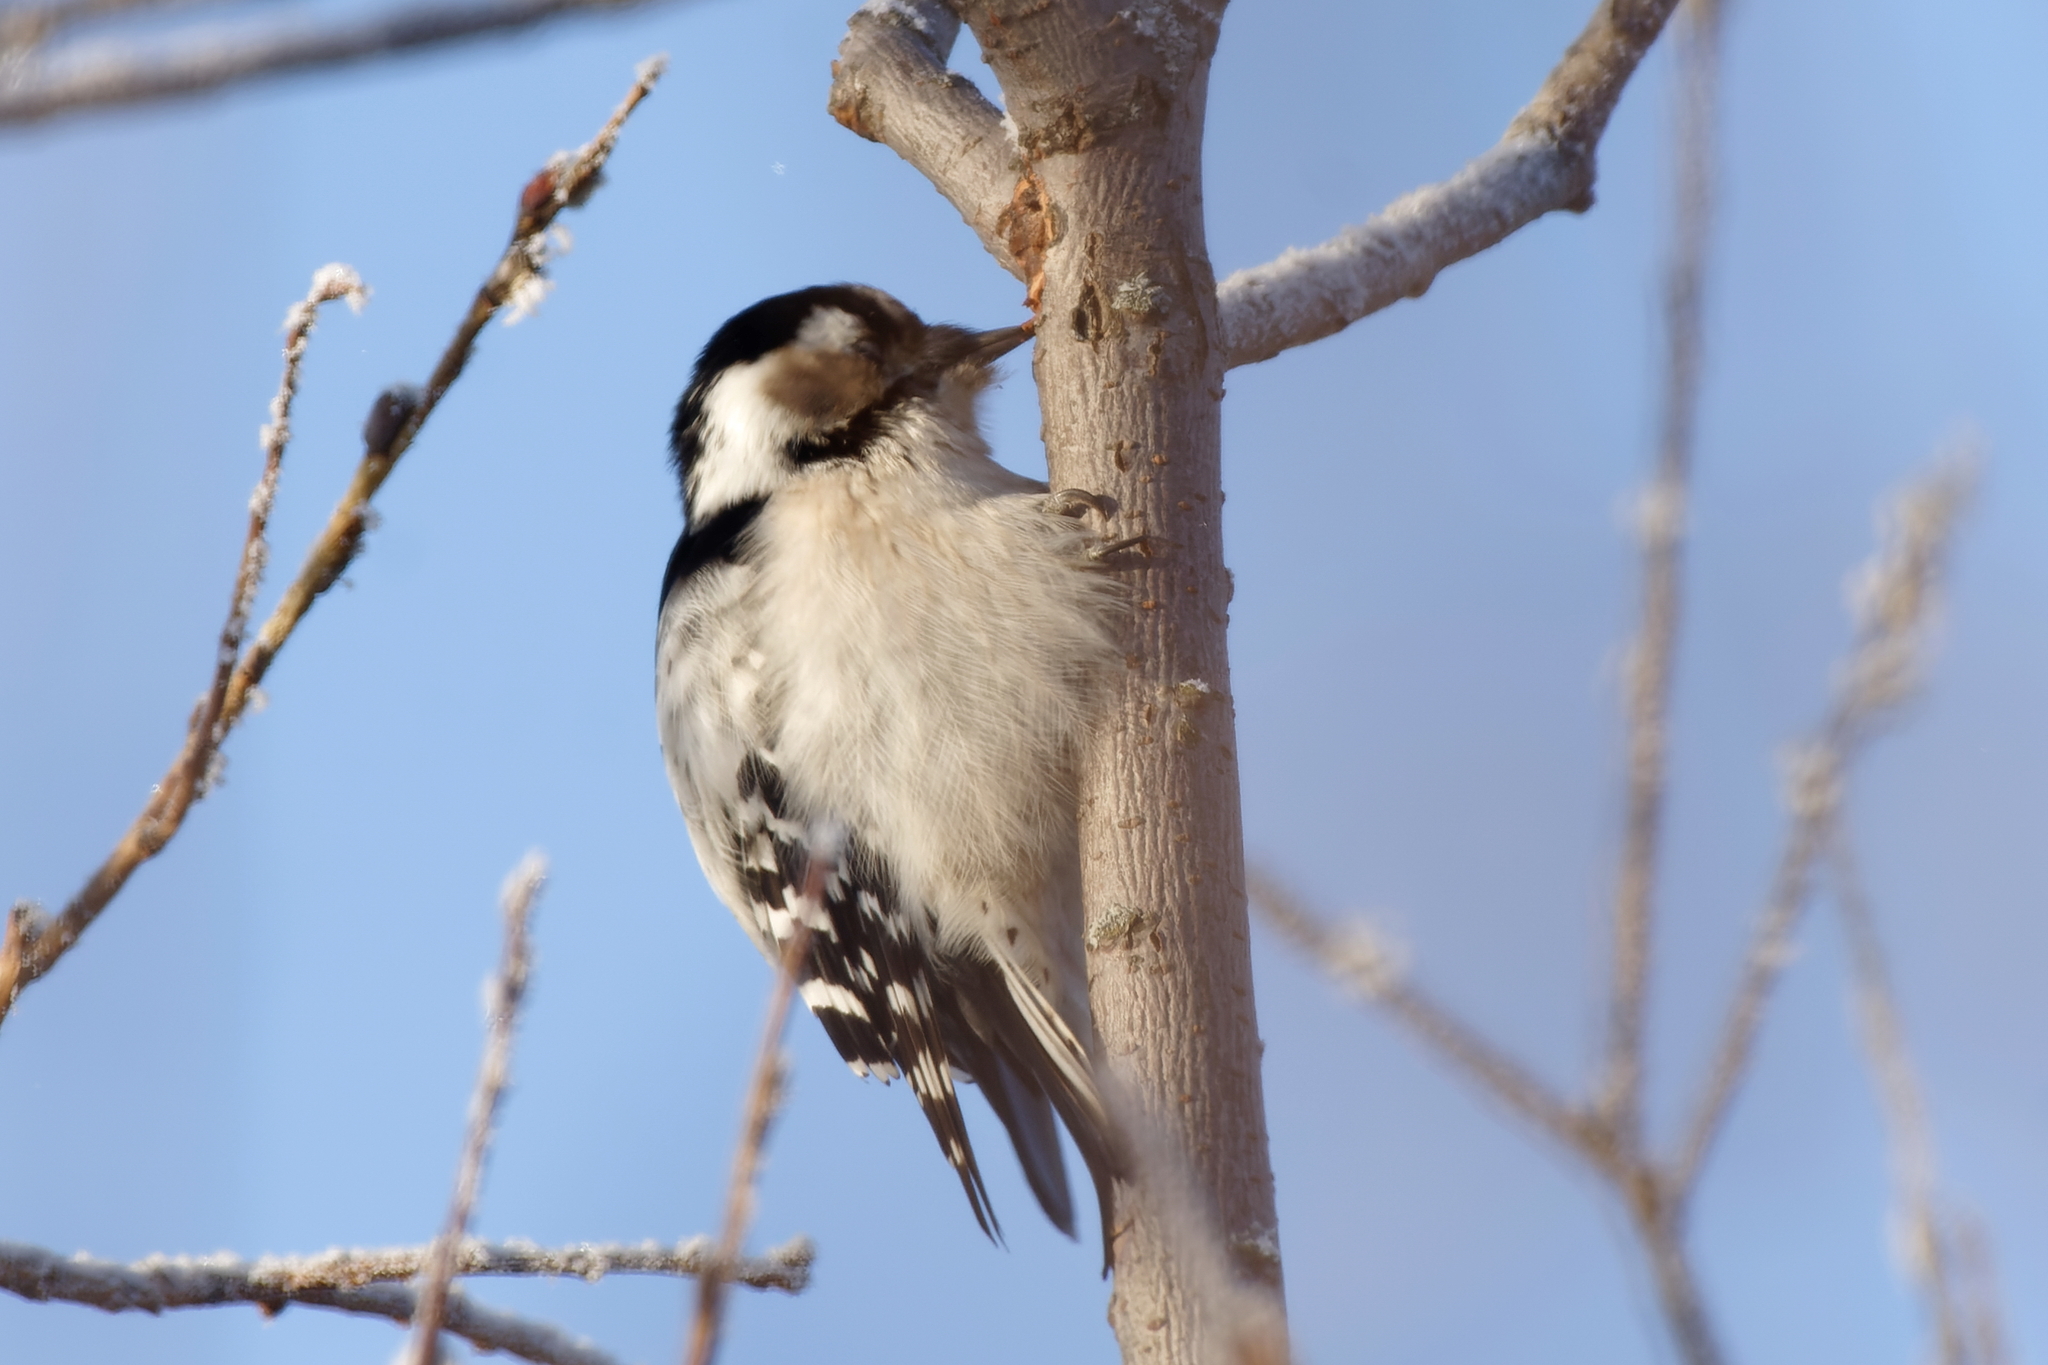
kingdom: Animalia
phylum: Chordata
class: Aves
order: Piciformes
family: Picidae
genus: Dryobates
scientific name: Dryobates minor
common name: Lesser spotted woodpecker
